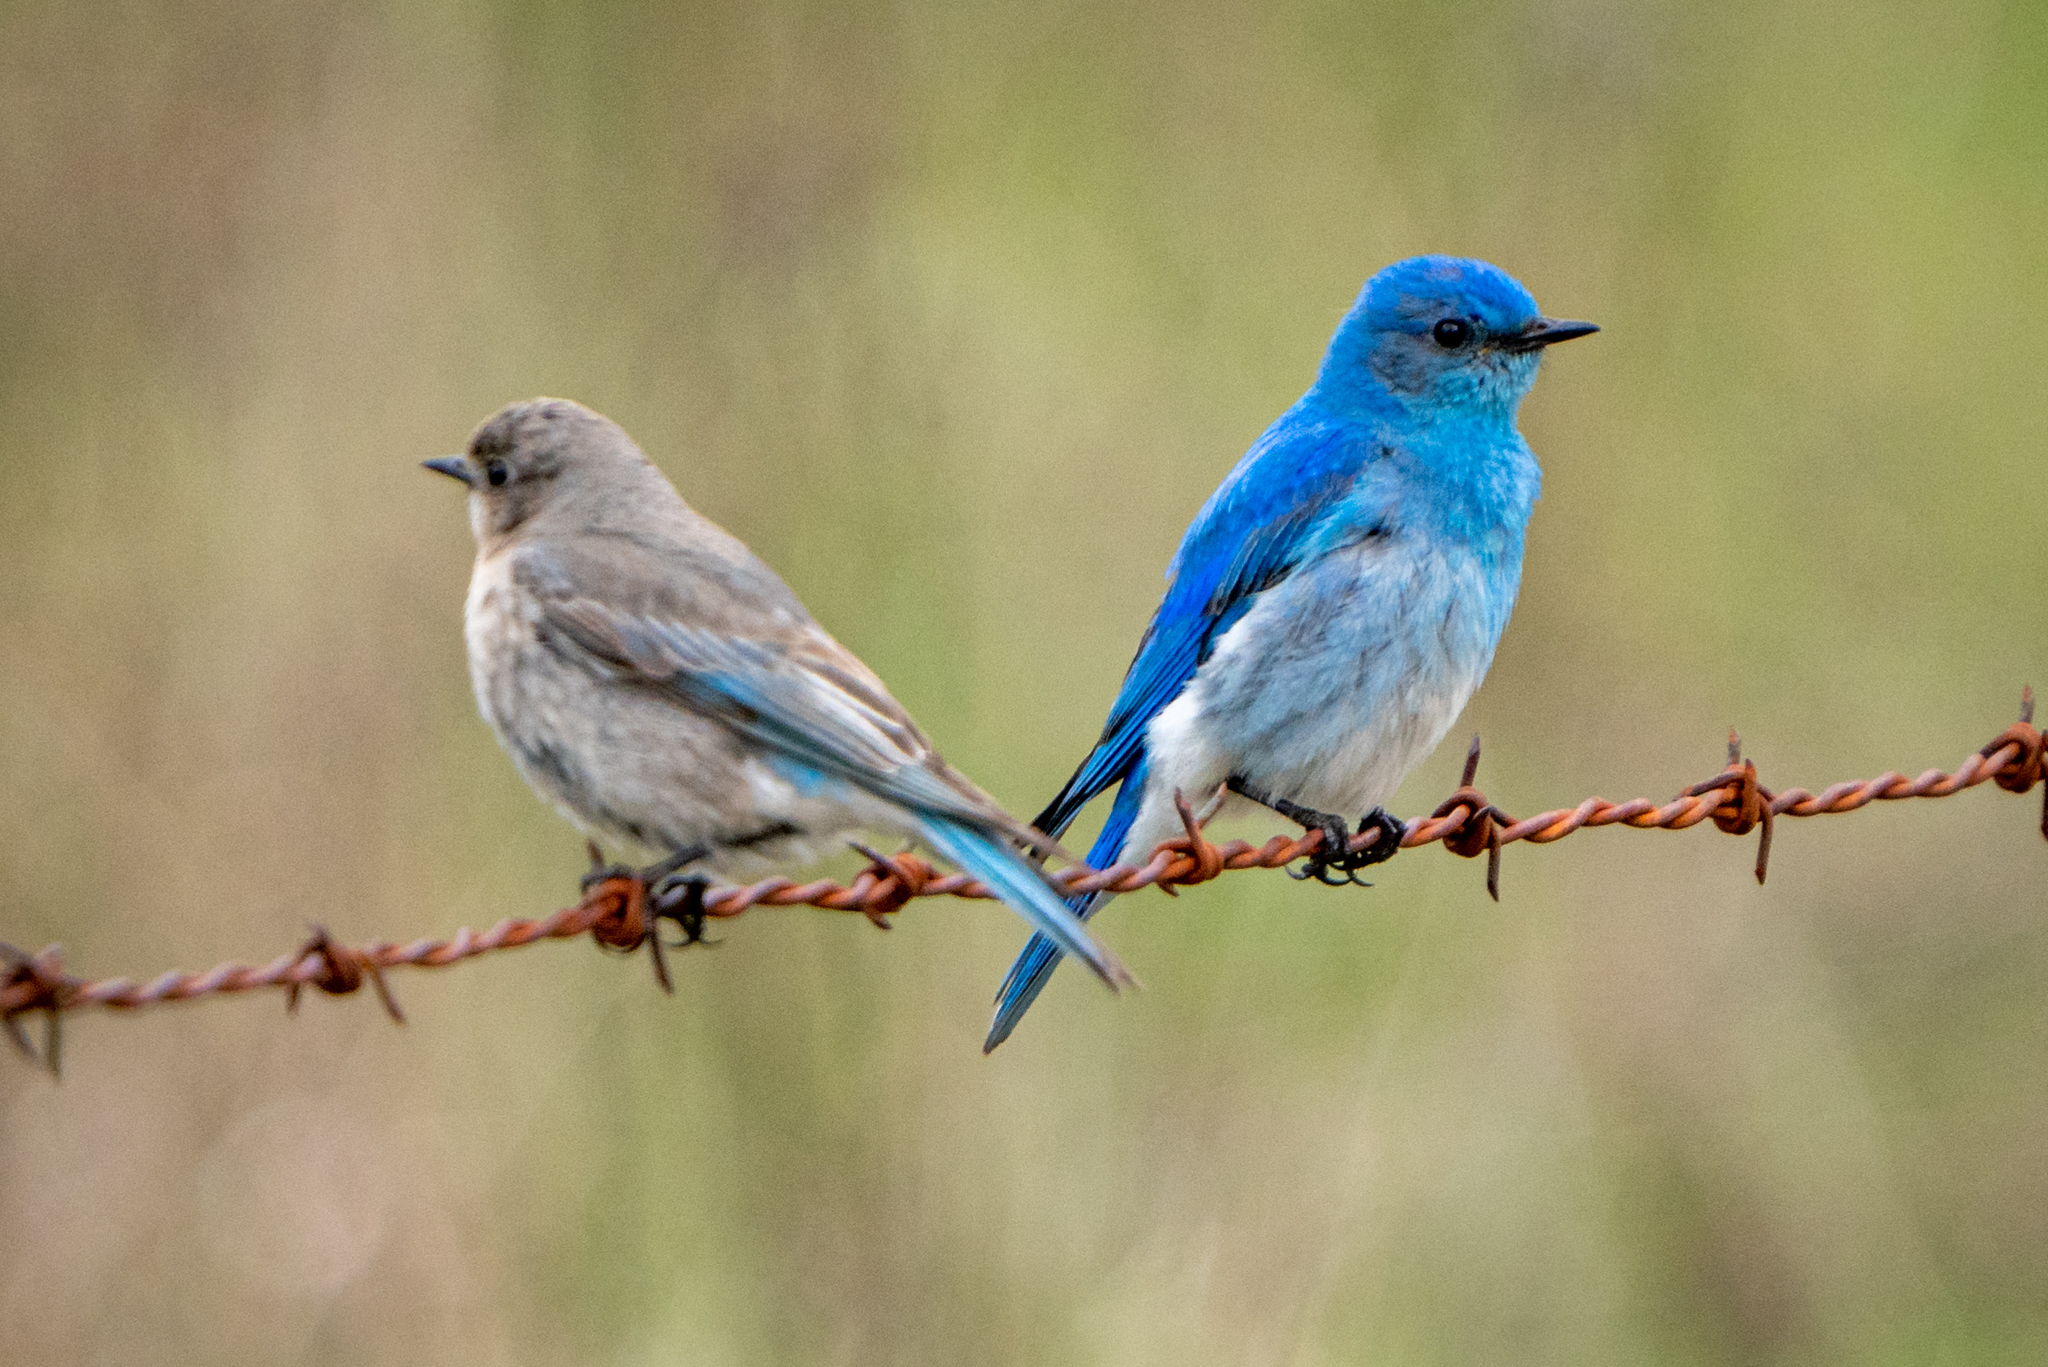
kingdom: Animalia
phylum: Chordata
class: Aves
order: Passeriformes
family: Turdidae
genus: Sialia
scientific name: Sialia currucoides
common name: Mountain bluebird
